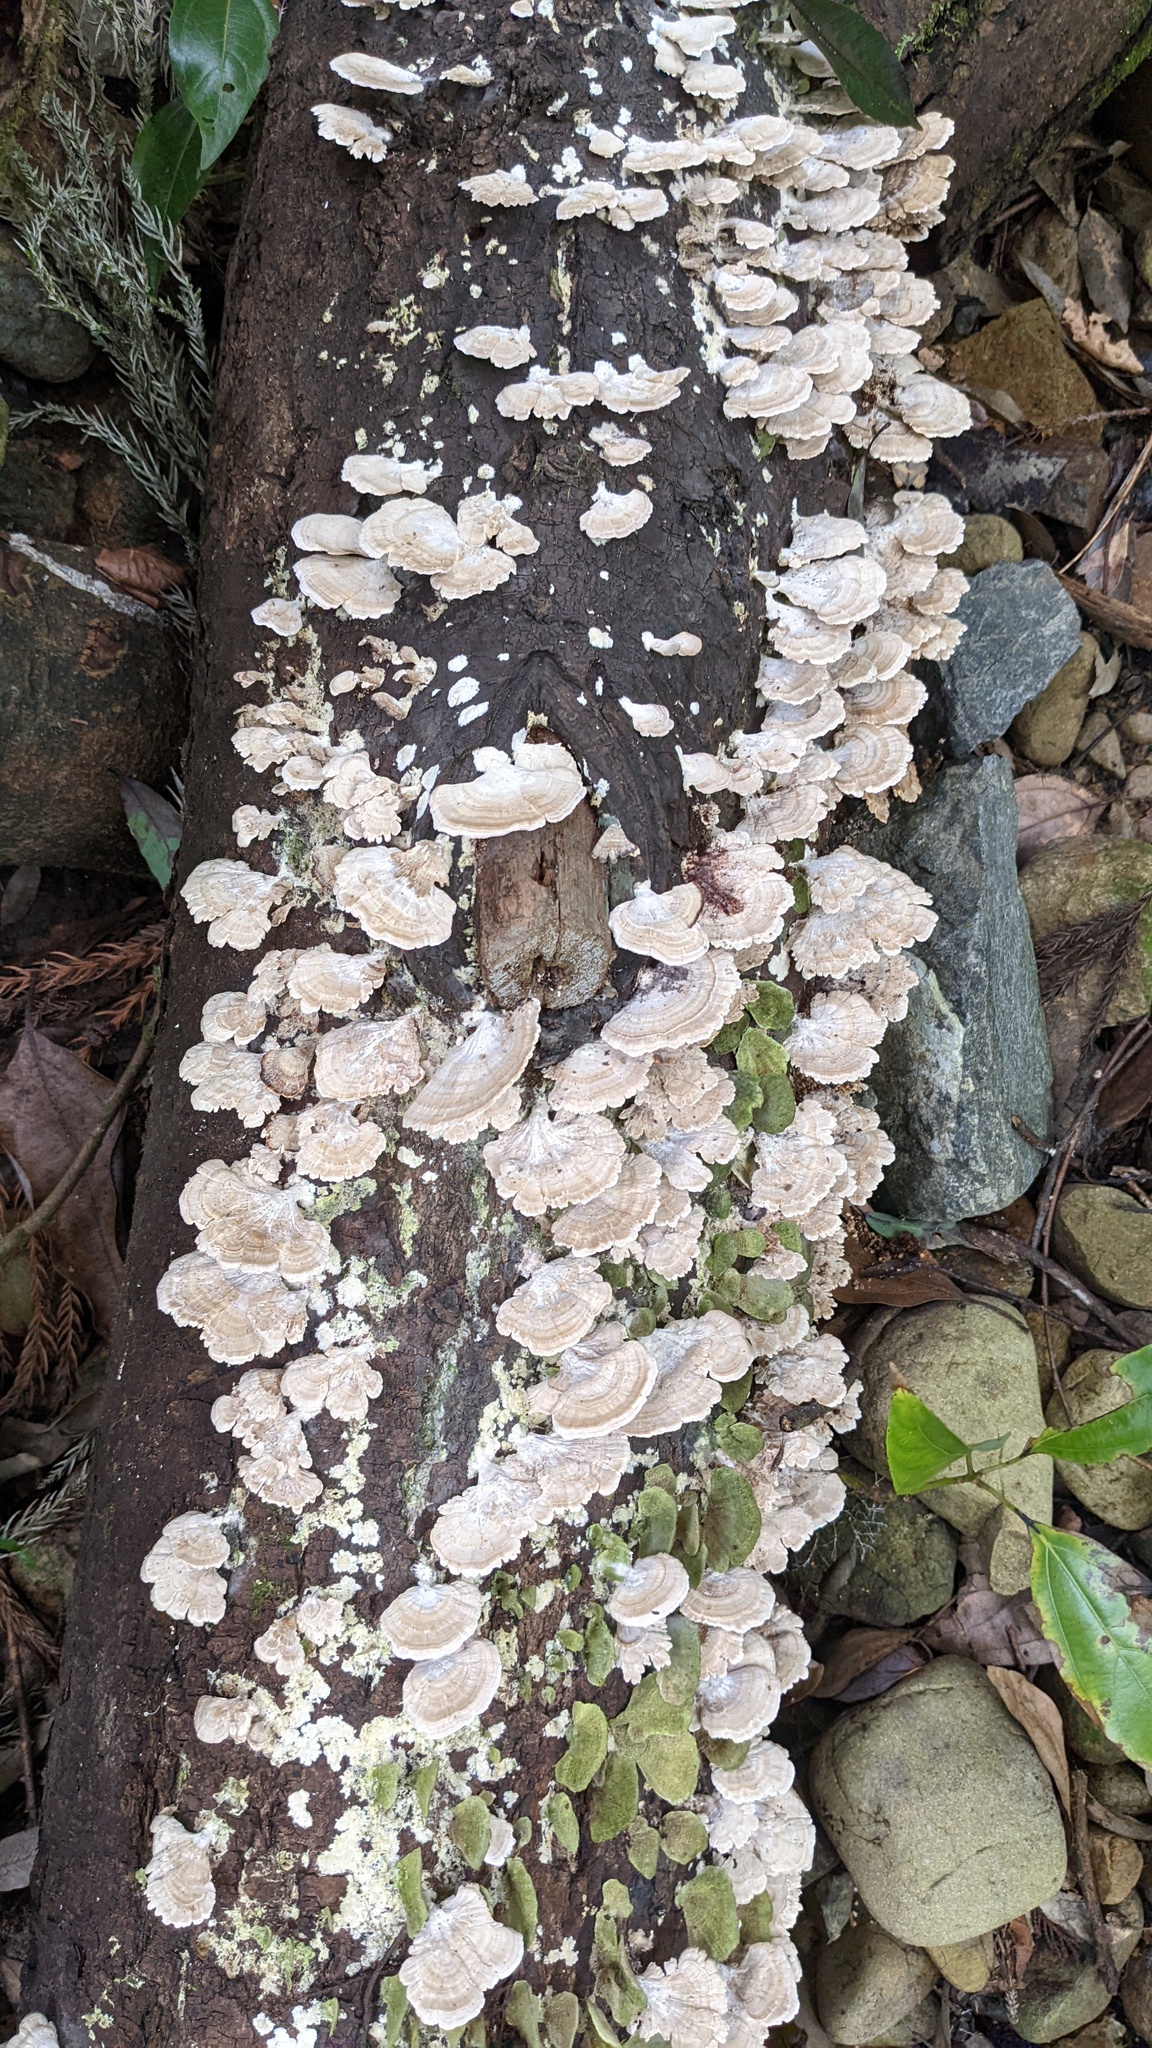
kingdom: Fungi
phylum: Basidiomycota
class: Agaricomycetes
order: Hymenochaetales
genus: Trichaptum
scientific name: Trichaptum biforme
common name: Violet-toothed polypore
